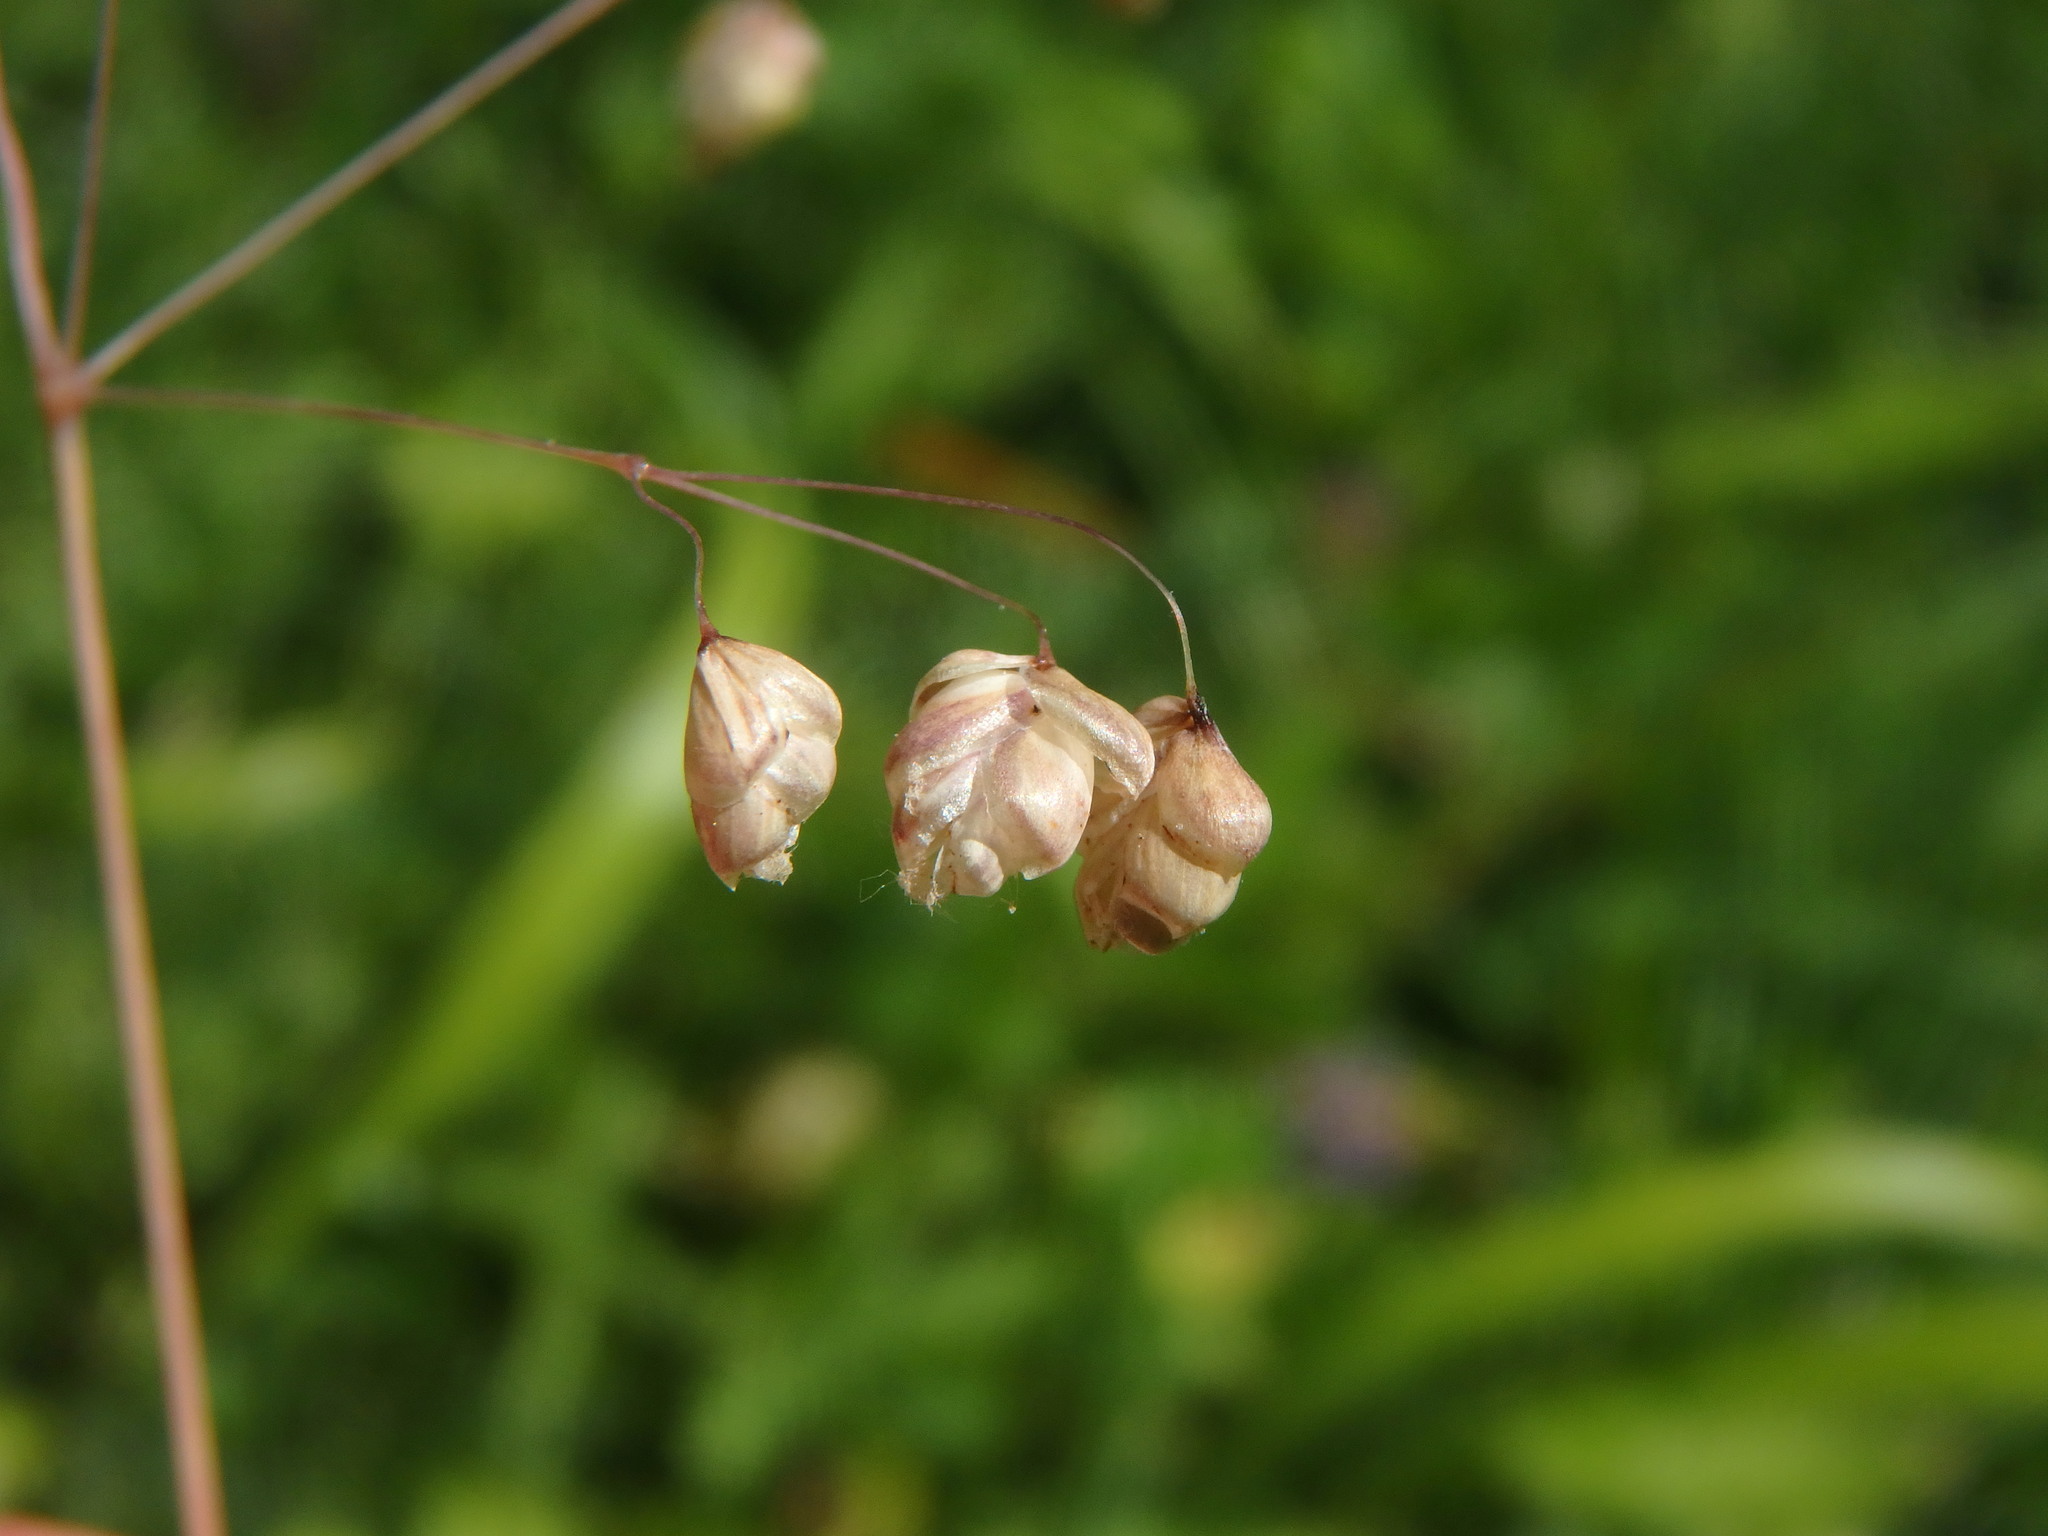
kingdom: Plantae
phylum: Tracheophyta
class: Liliopsida
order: Poales
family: Poaceae
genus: Briza
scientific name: Briza media
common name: Quaking grass
